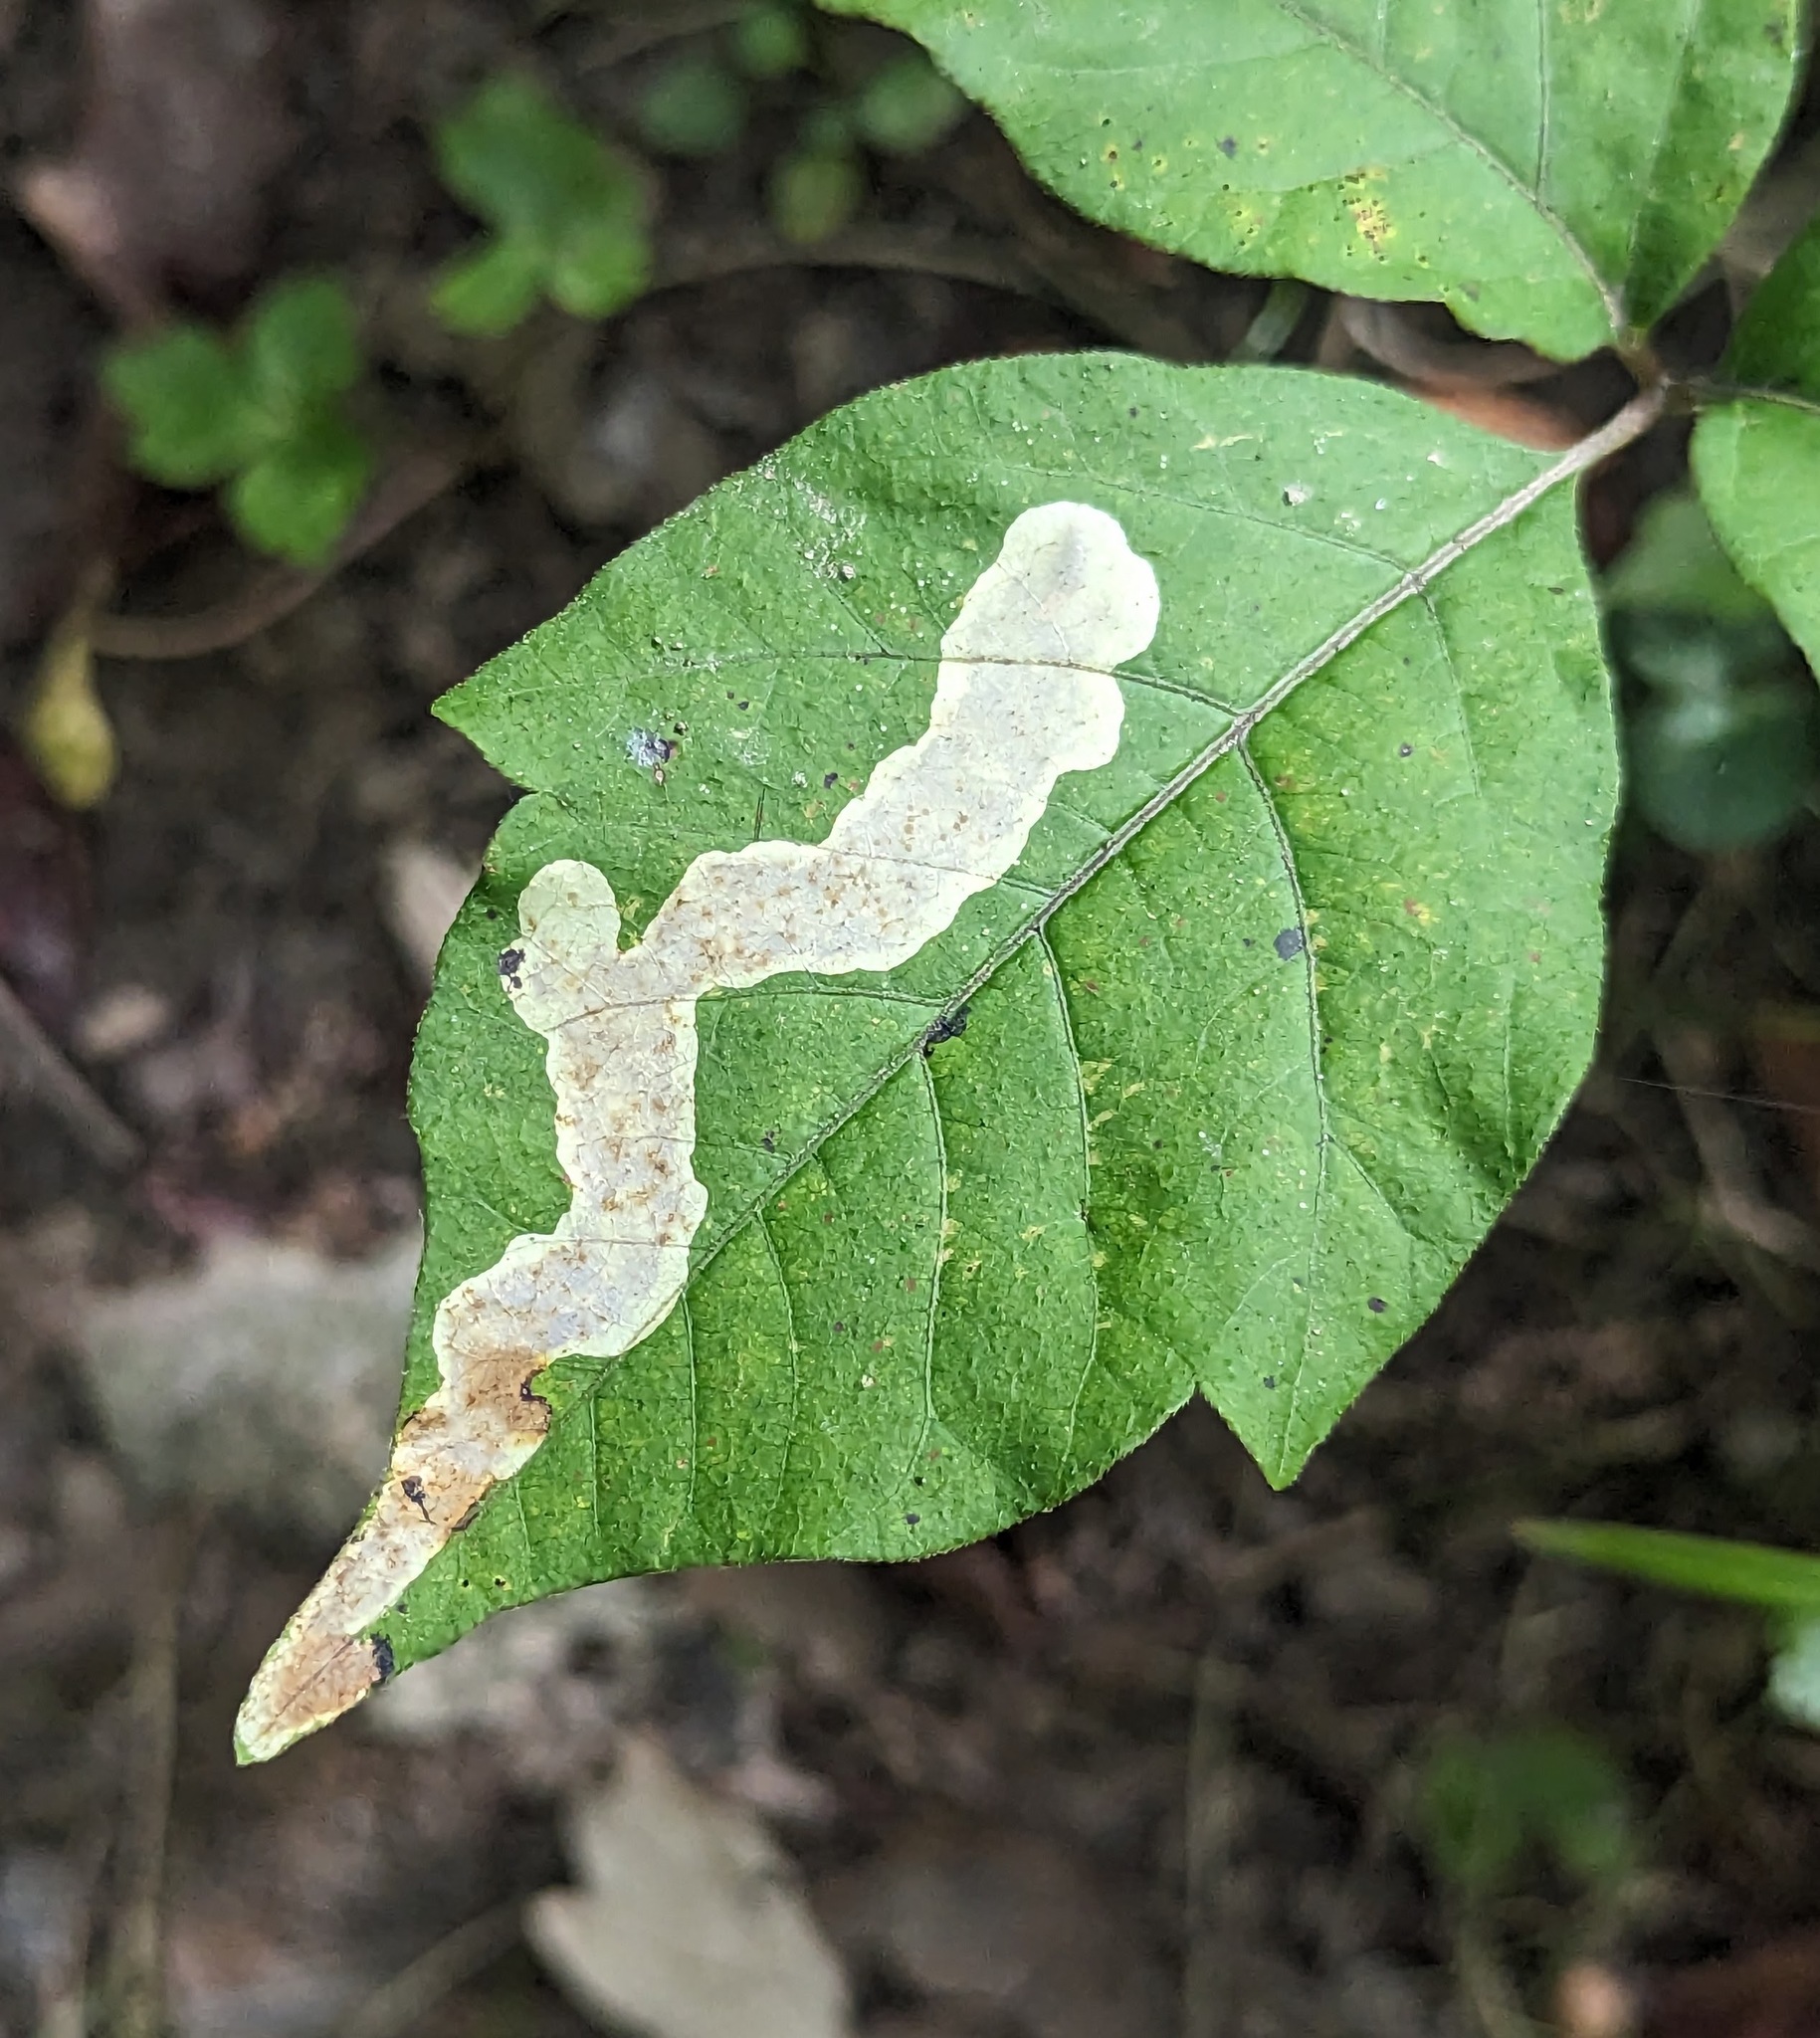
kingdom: Animalia
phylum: Arthropoda
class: Insecta
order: Lepidoptera
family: Gracillariidae
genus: Cameraria
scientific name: Cameraria guttifinitella
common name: Poison ivy leaf-miner moth
